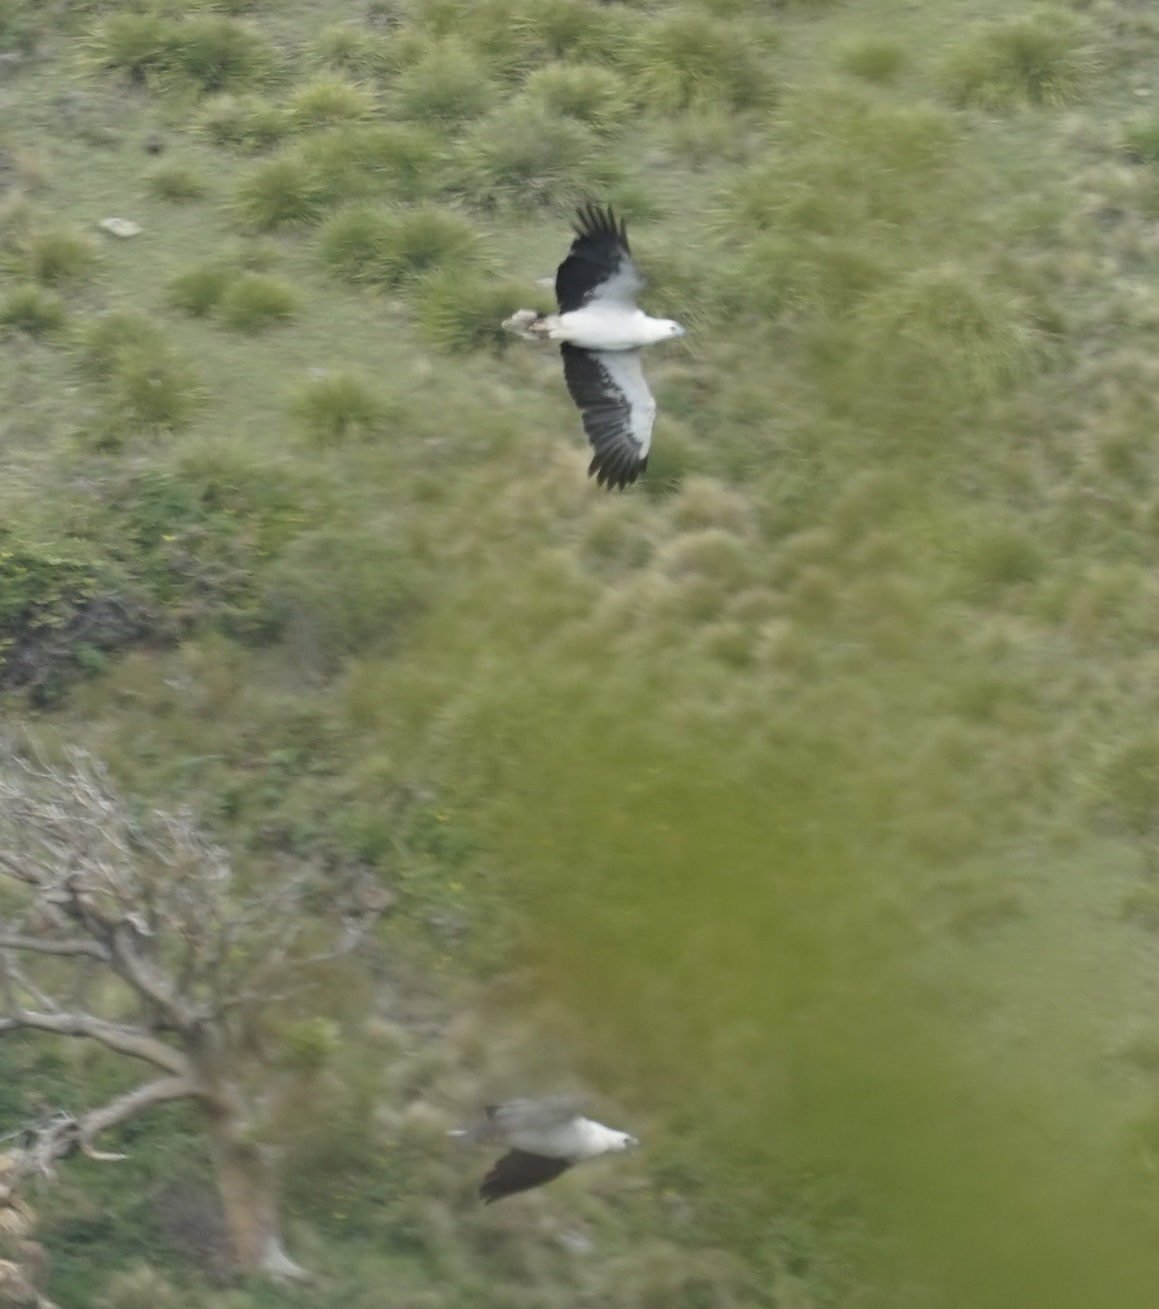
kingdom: Animalia
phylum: Chordata
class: Aves
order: Accipitriformes
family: Accipitridae
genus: Haliaeetus
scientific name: Haliaeetus leucogaster
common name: White-bellied sea eagle
